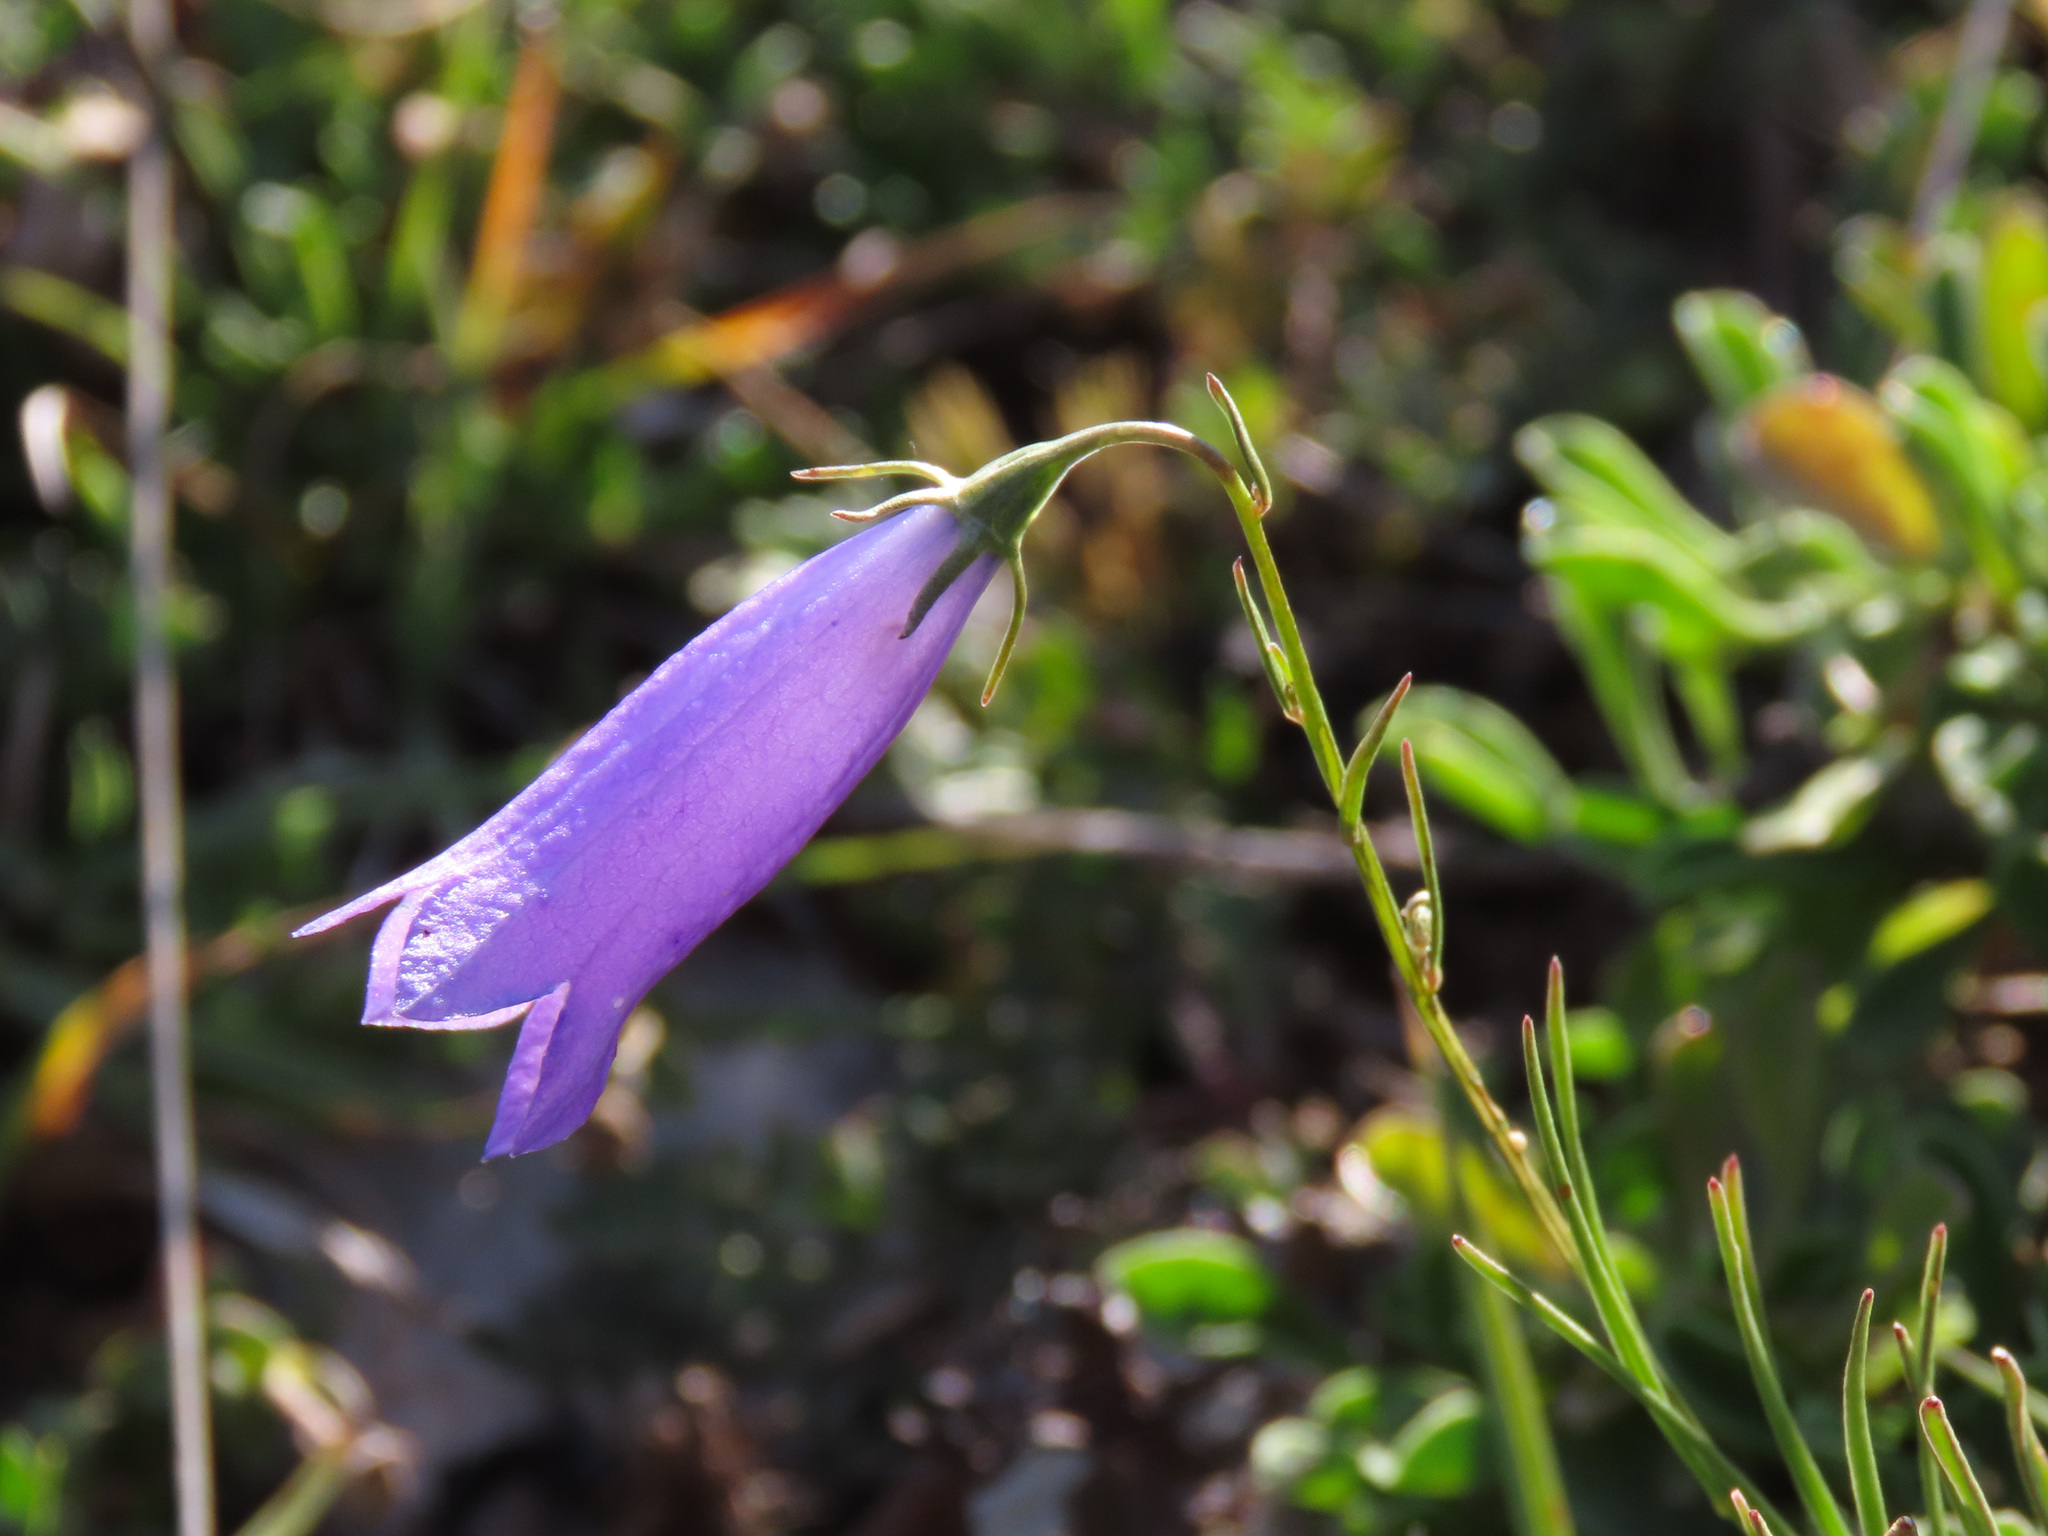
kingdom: Plantae
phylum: Tracheophyta
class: Magnoliopsida
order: Asterales
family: Campanulaceae
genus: Campanula
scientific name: Campanula pseudostenocodon
